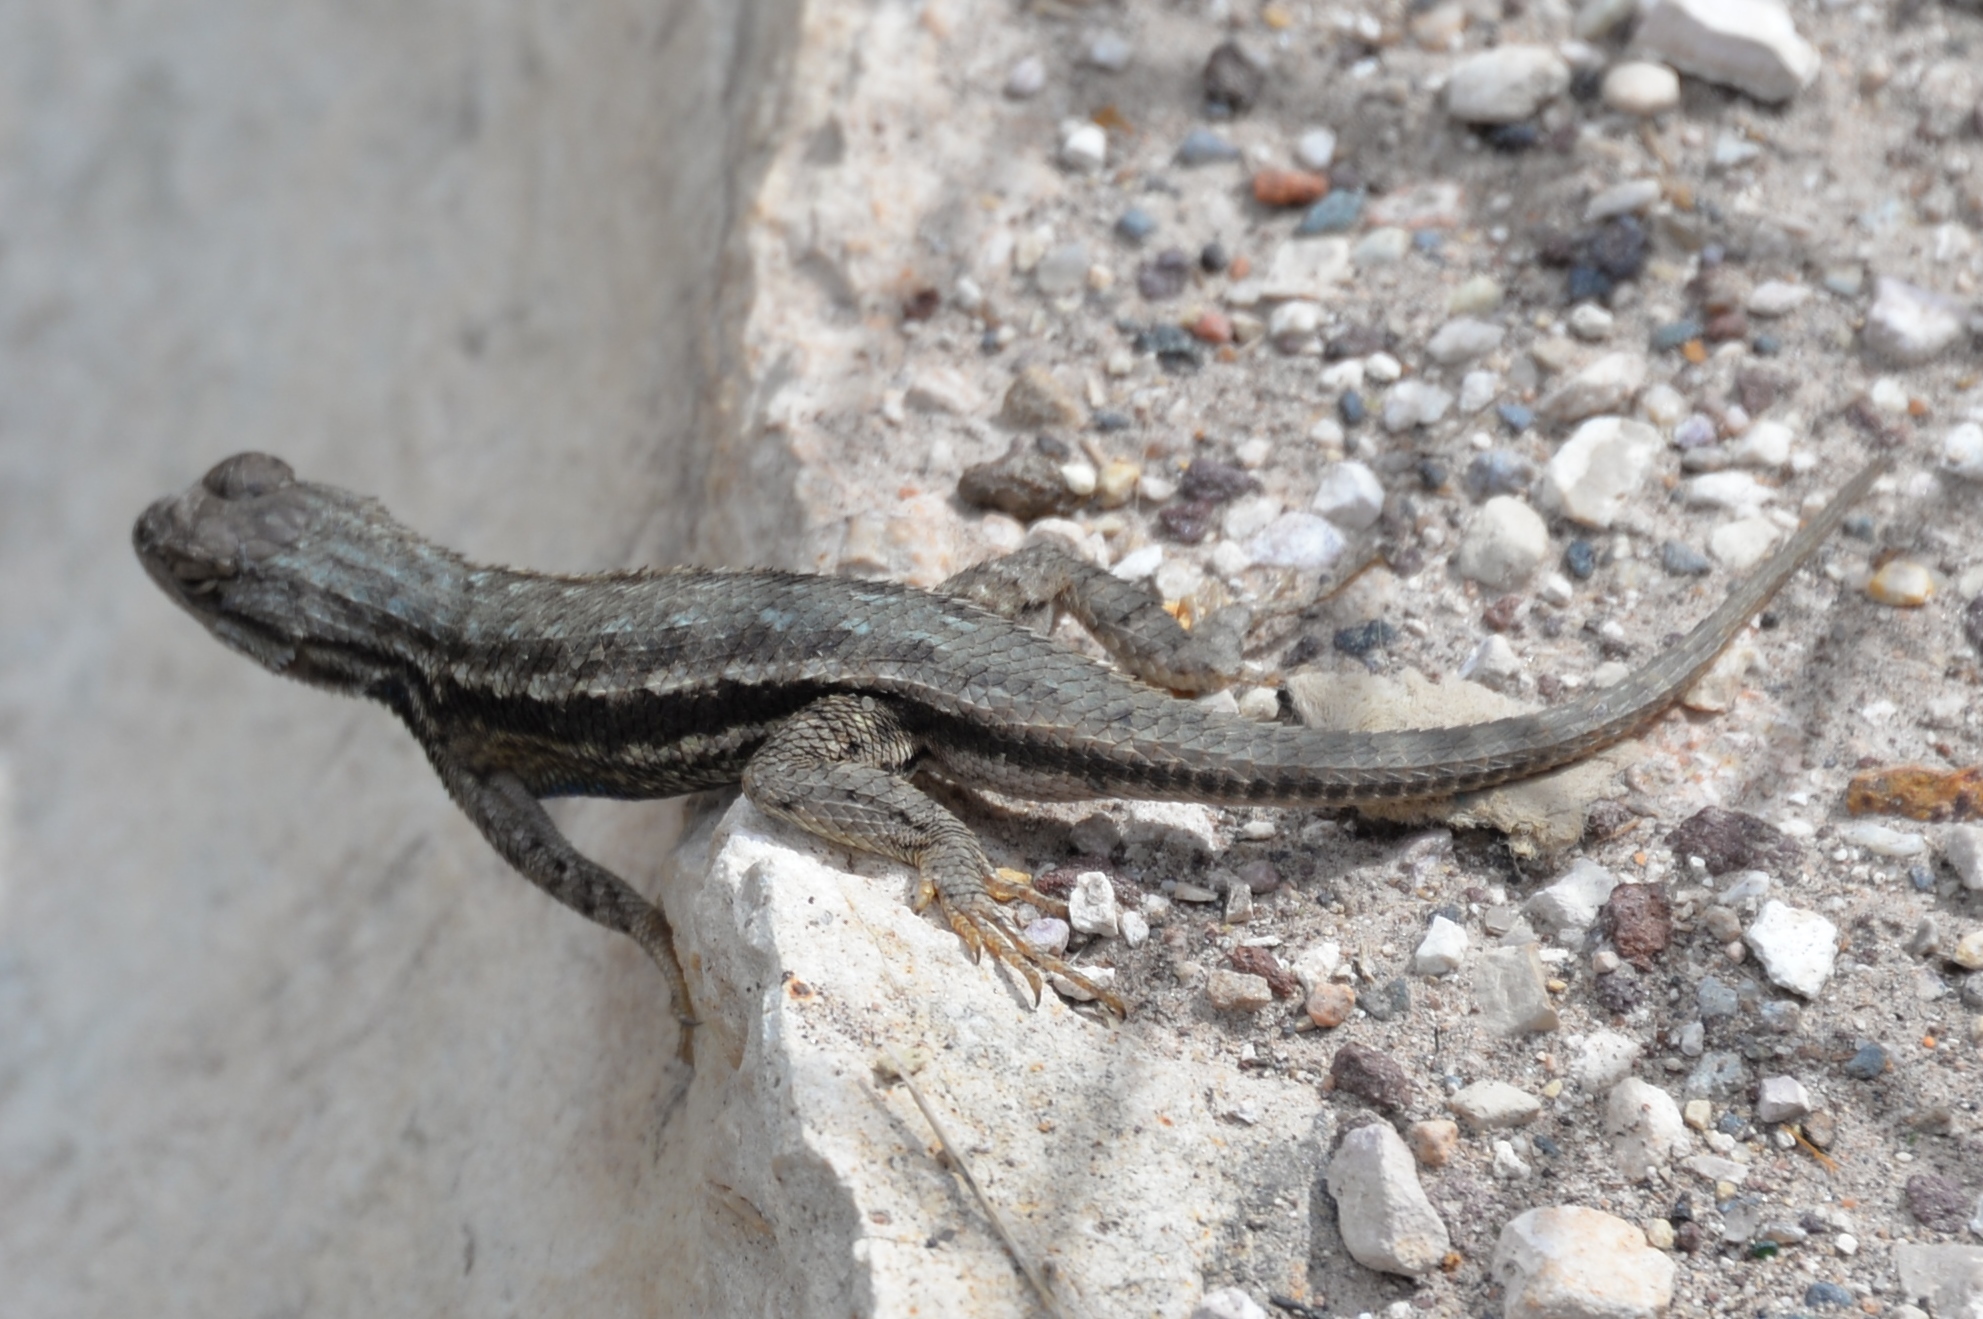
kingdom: Animalia
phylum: Chordata
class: Squamata
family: Phrynosomatidae
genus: Sceloporus
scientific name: Sceloporus tristichus
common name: Plateau fence lizard
